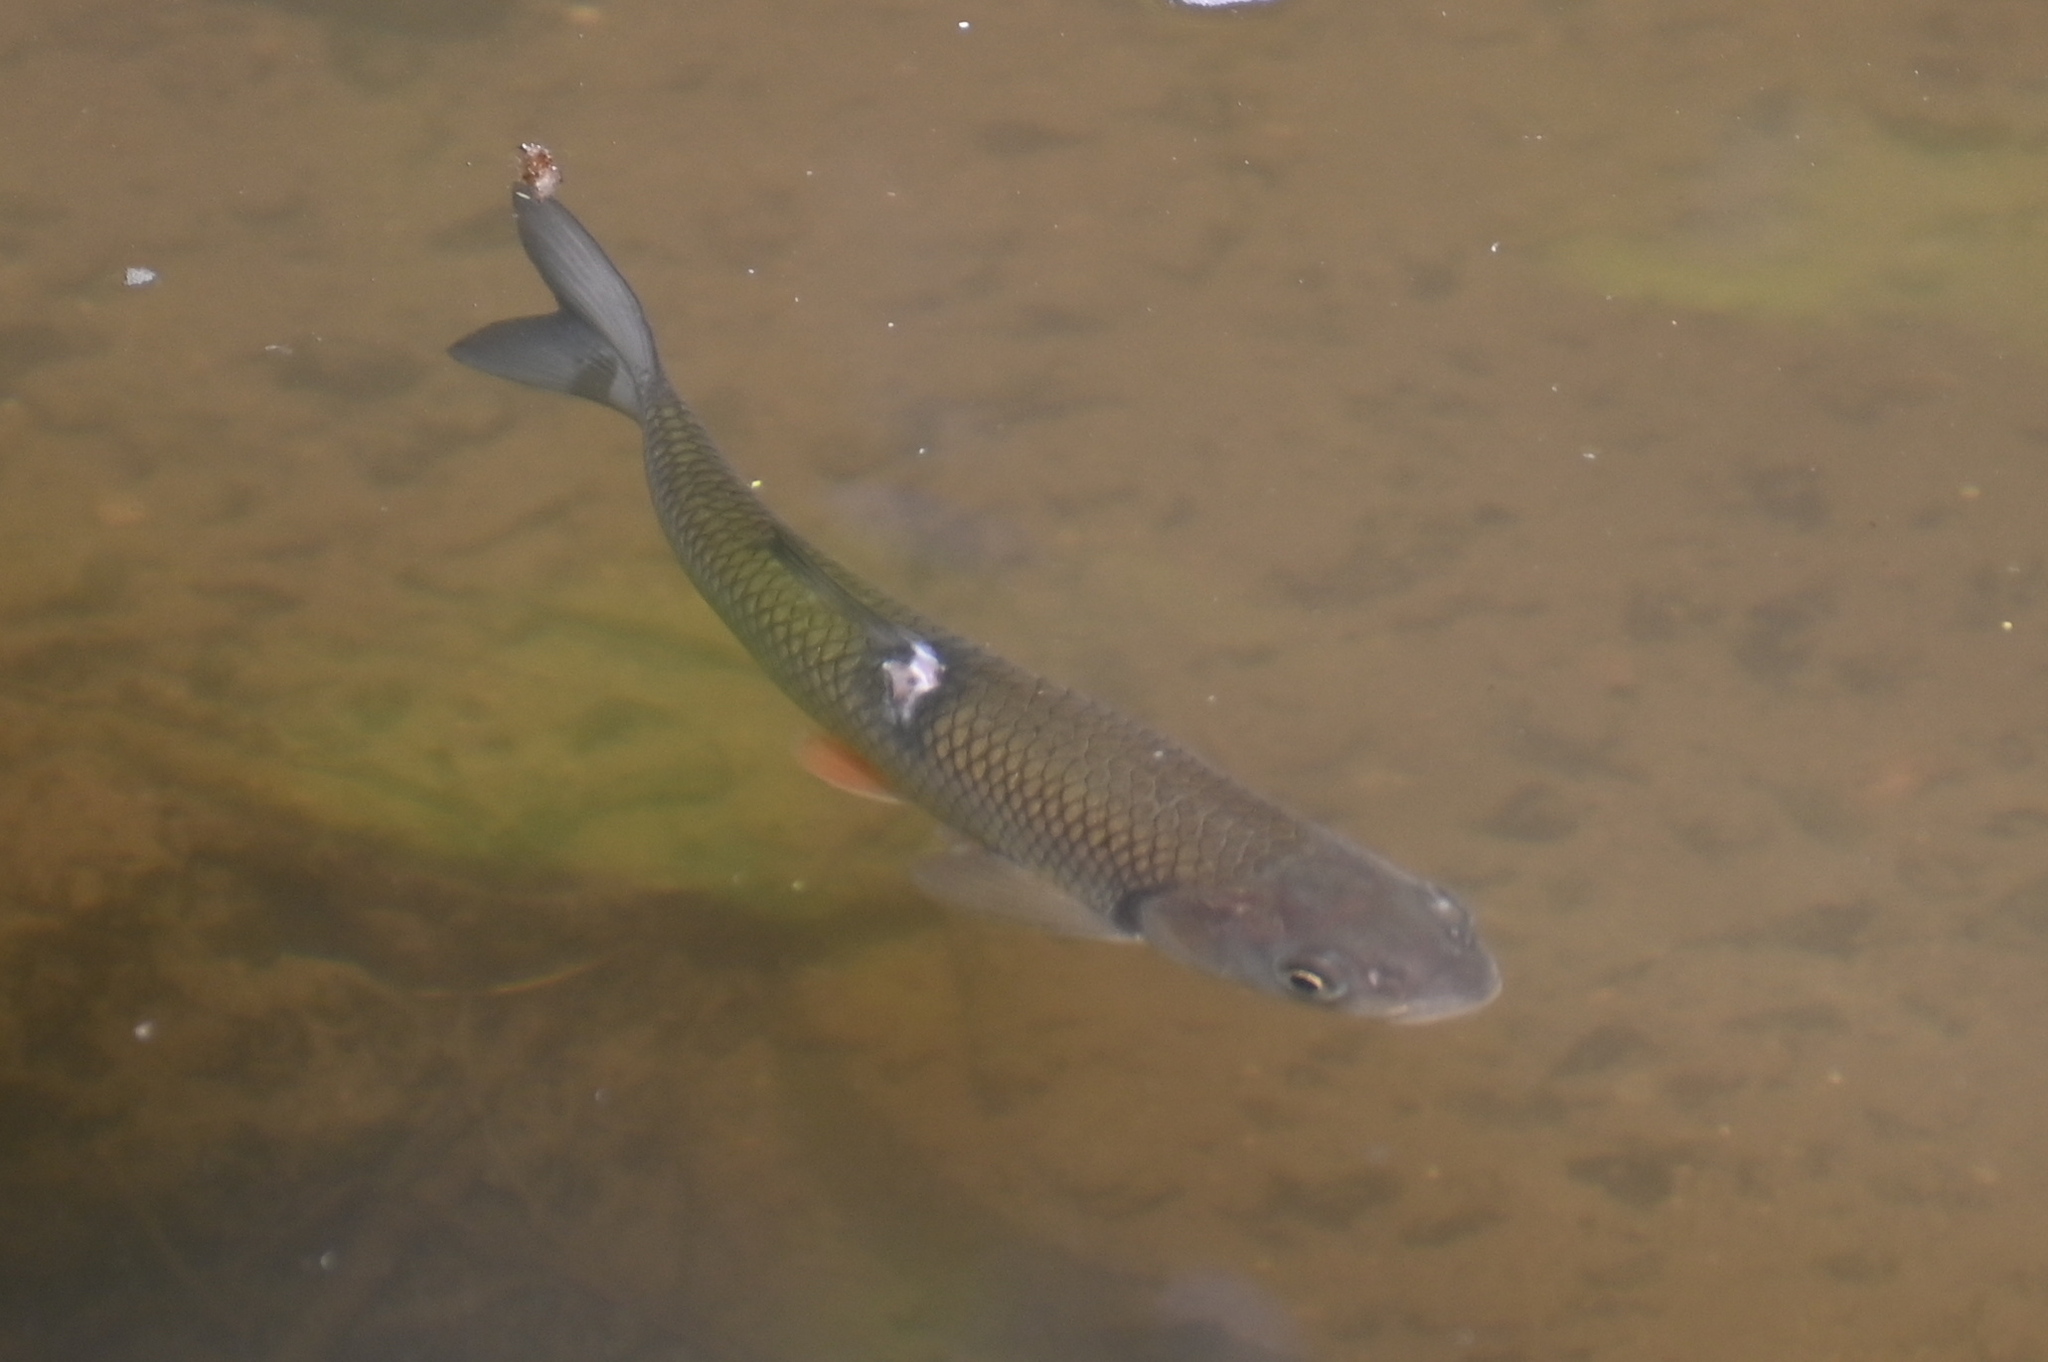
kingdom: Animalia
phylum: Chordata
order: Cypriniformes
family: Cyprinidae
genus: Squalius
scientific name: Squalius cephalus
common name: Chub
